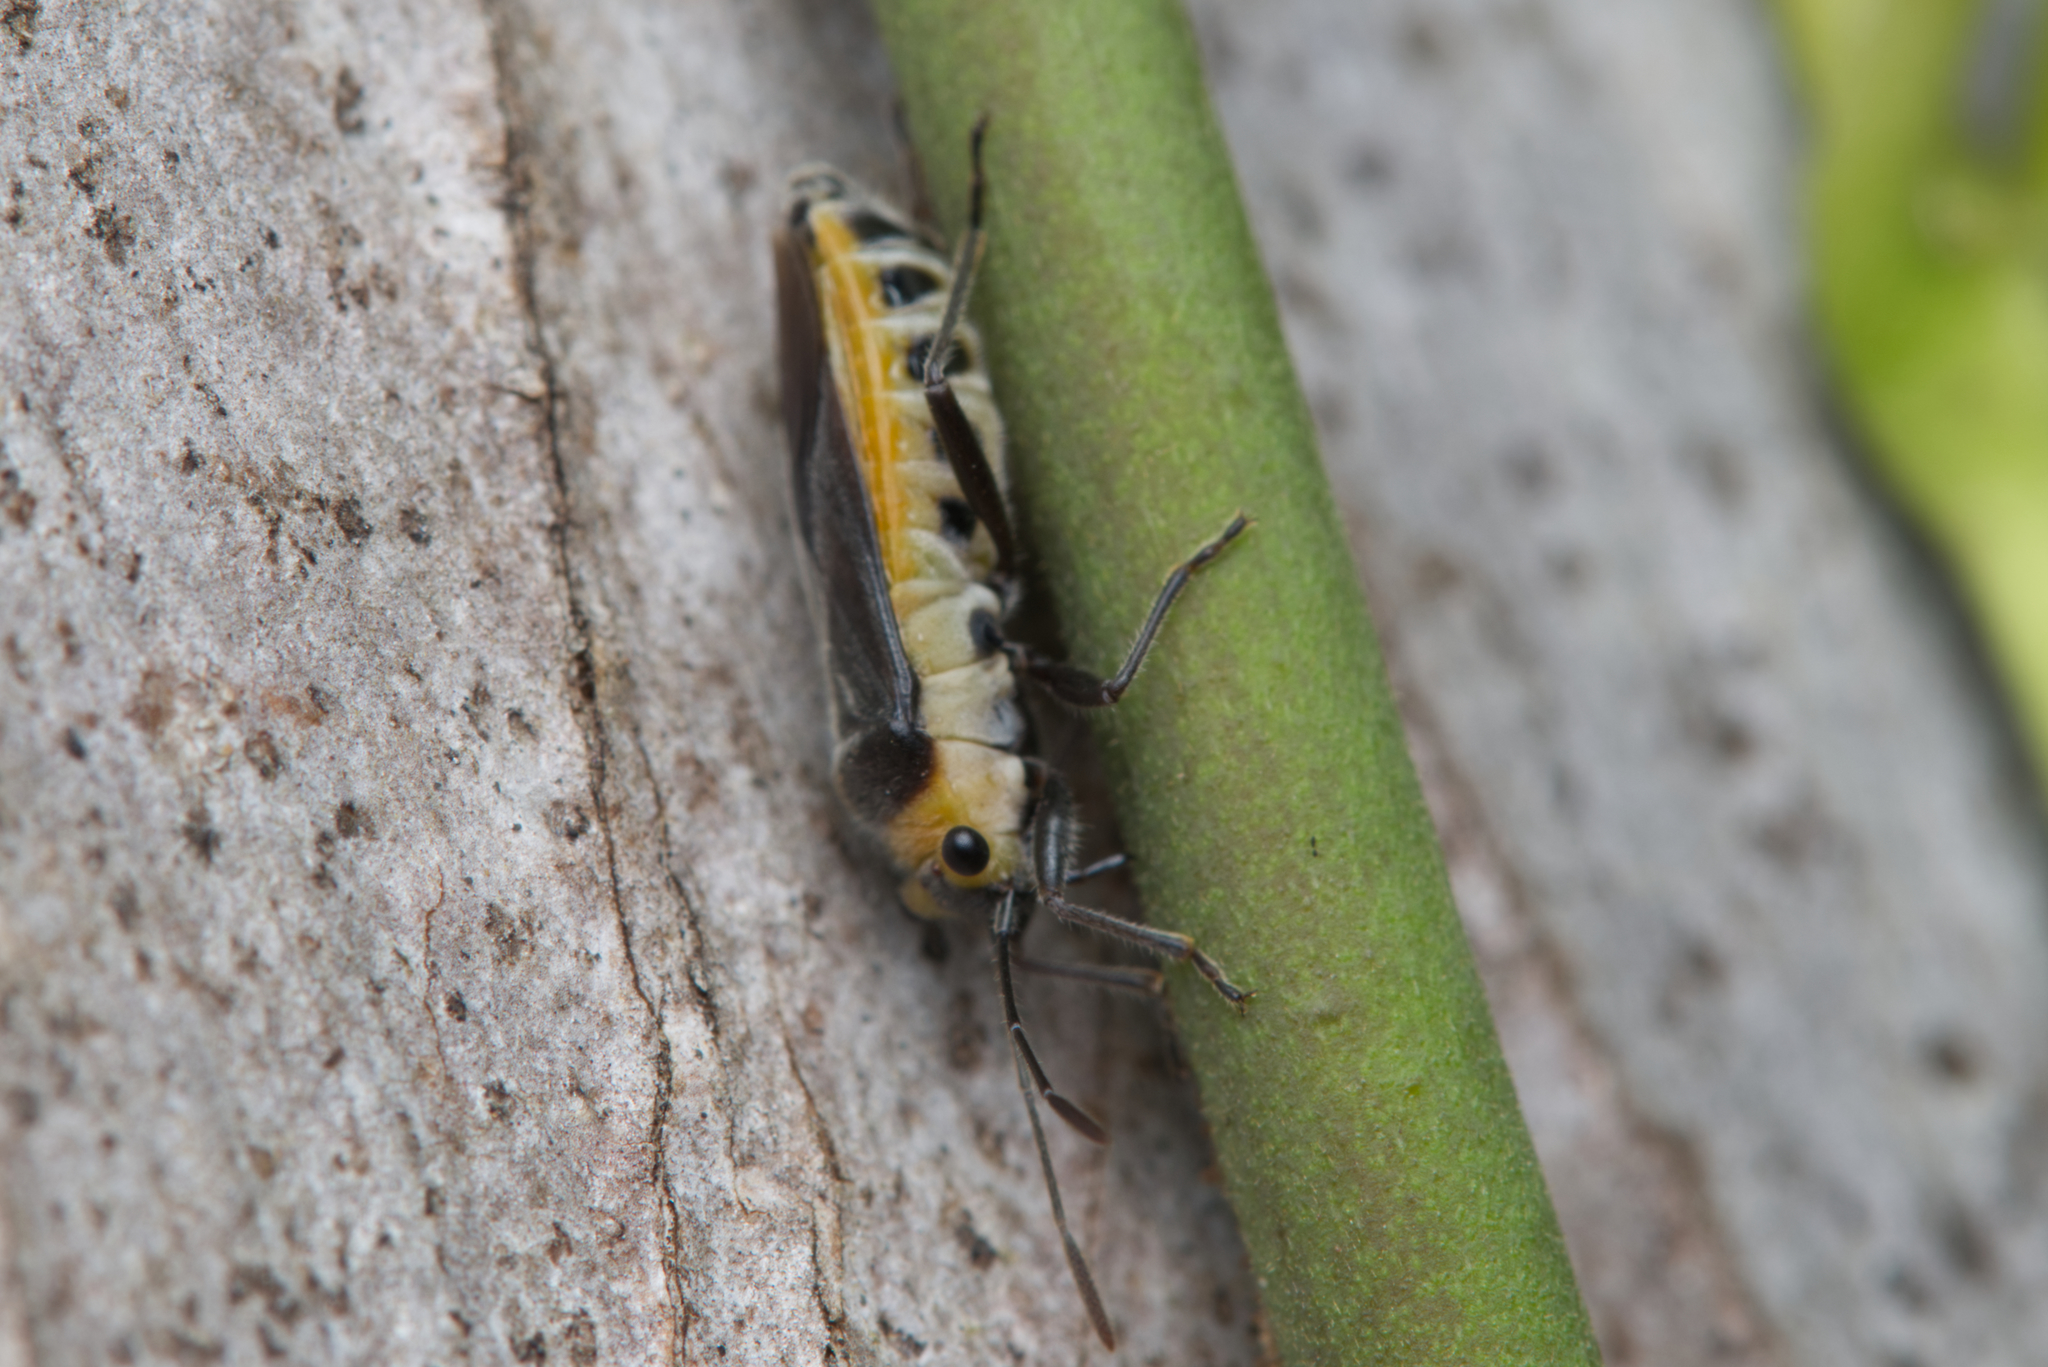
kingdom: Animalia
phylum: Arthropoda
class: Insecta
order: Hemiptera
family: Lygaeidae
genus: Scopiastes
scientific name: Scopiastes bicolor
